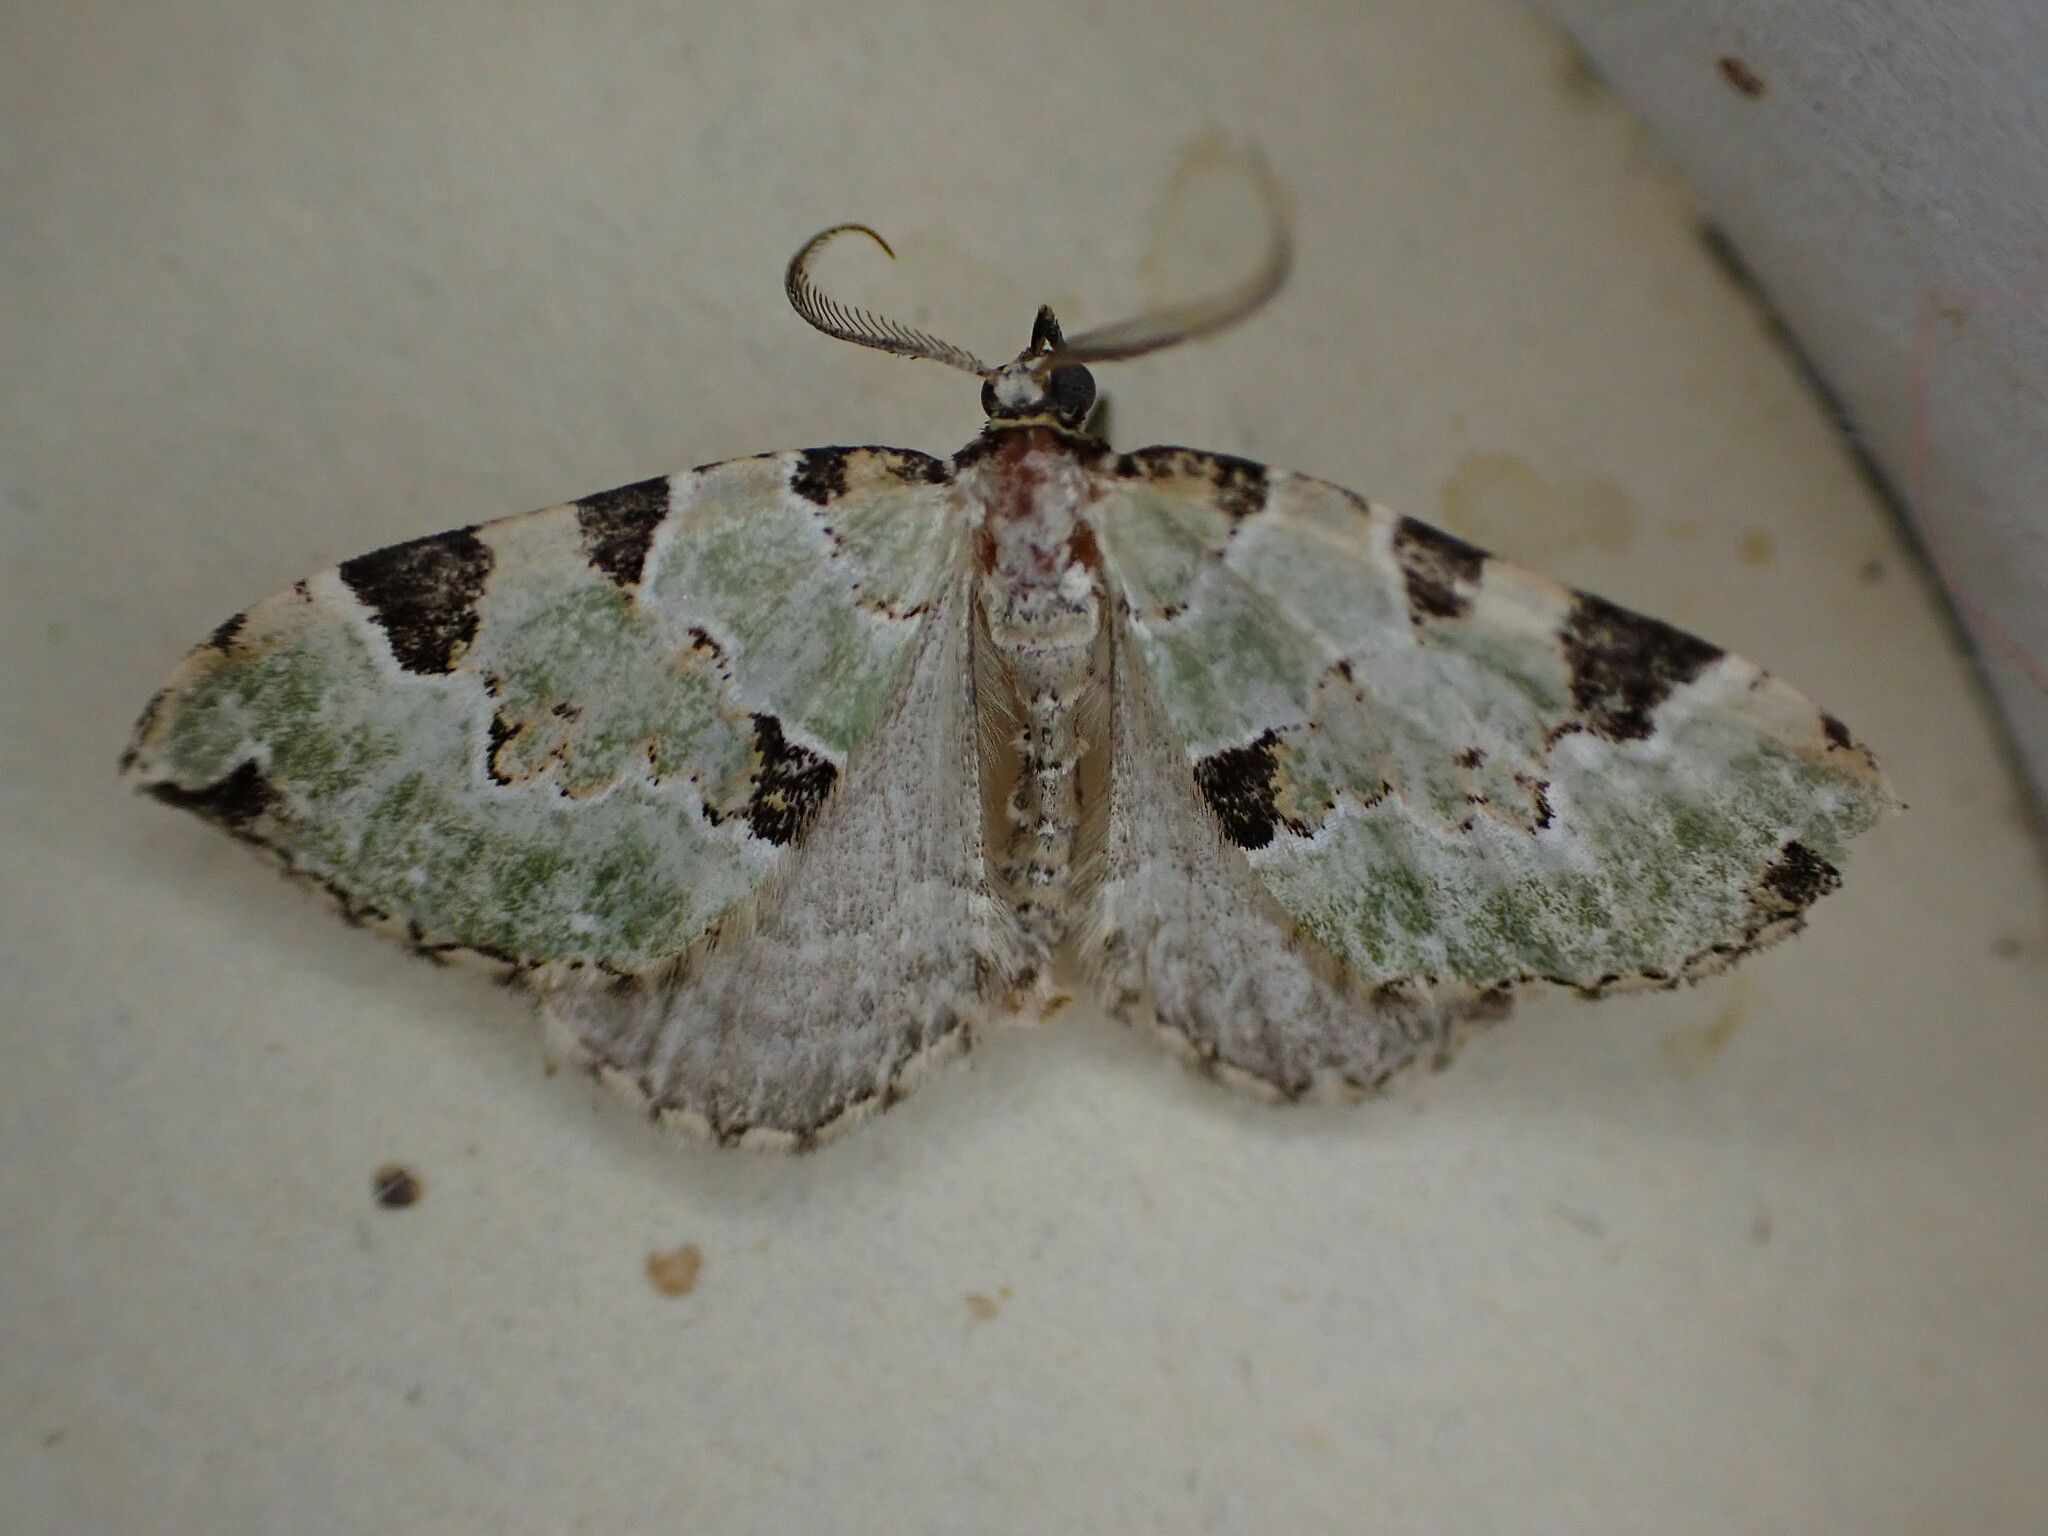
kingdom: Animalia
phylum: Arthropoda
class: Insecta
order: Lepidoptera
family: Geometridae
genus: Colostygia
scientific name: Colostygia pectinataria
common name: Green carpet
